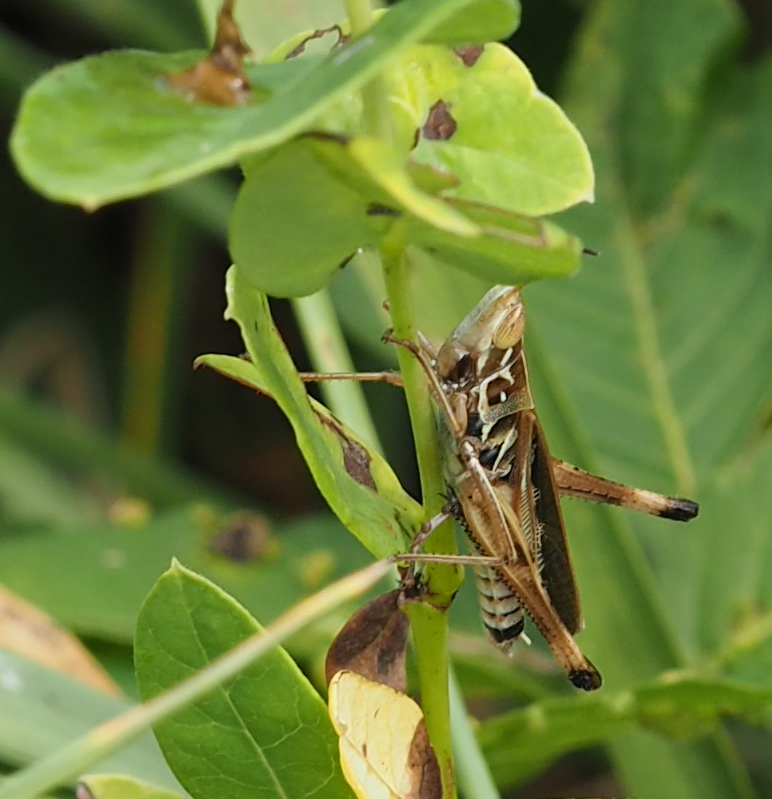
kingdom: Animalia
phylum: Arthropoda
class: Insecta
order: Orthoptera
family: Acrididae
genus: Syrbula
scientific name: Syrbula admirabilis
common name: Handsome grasshopper
